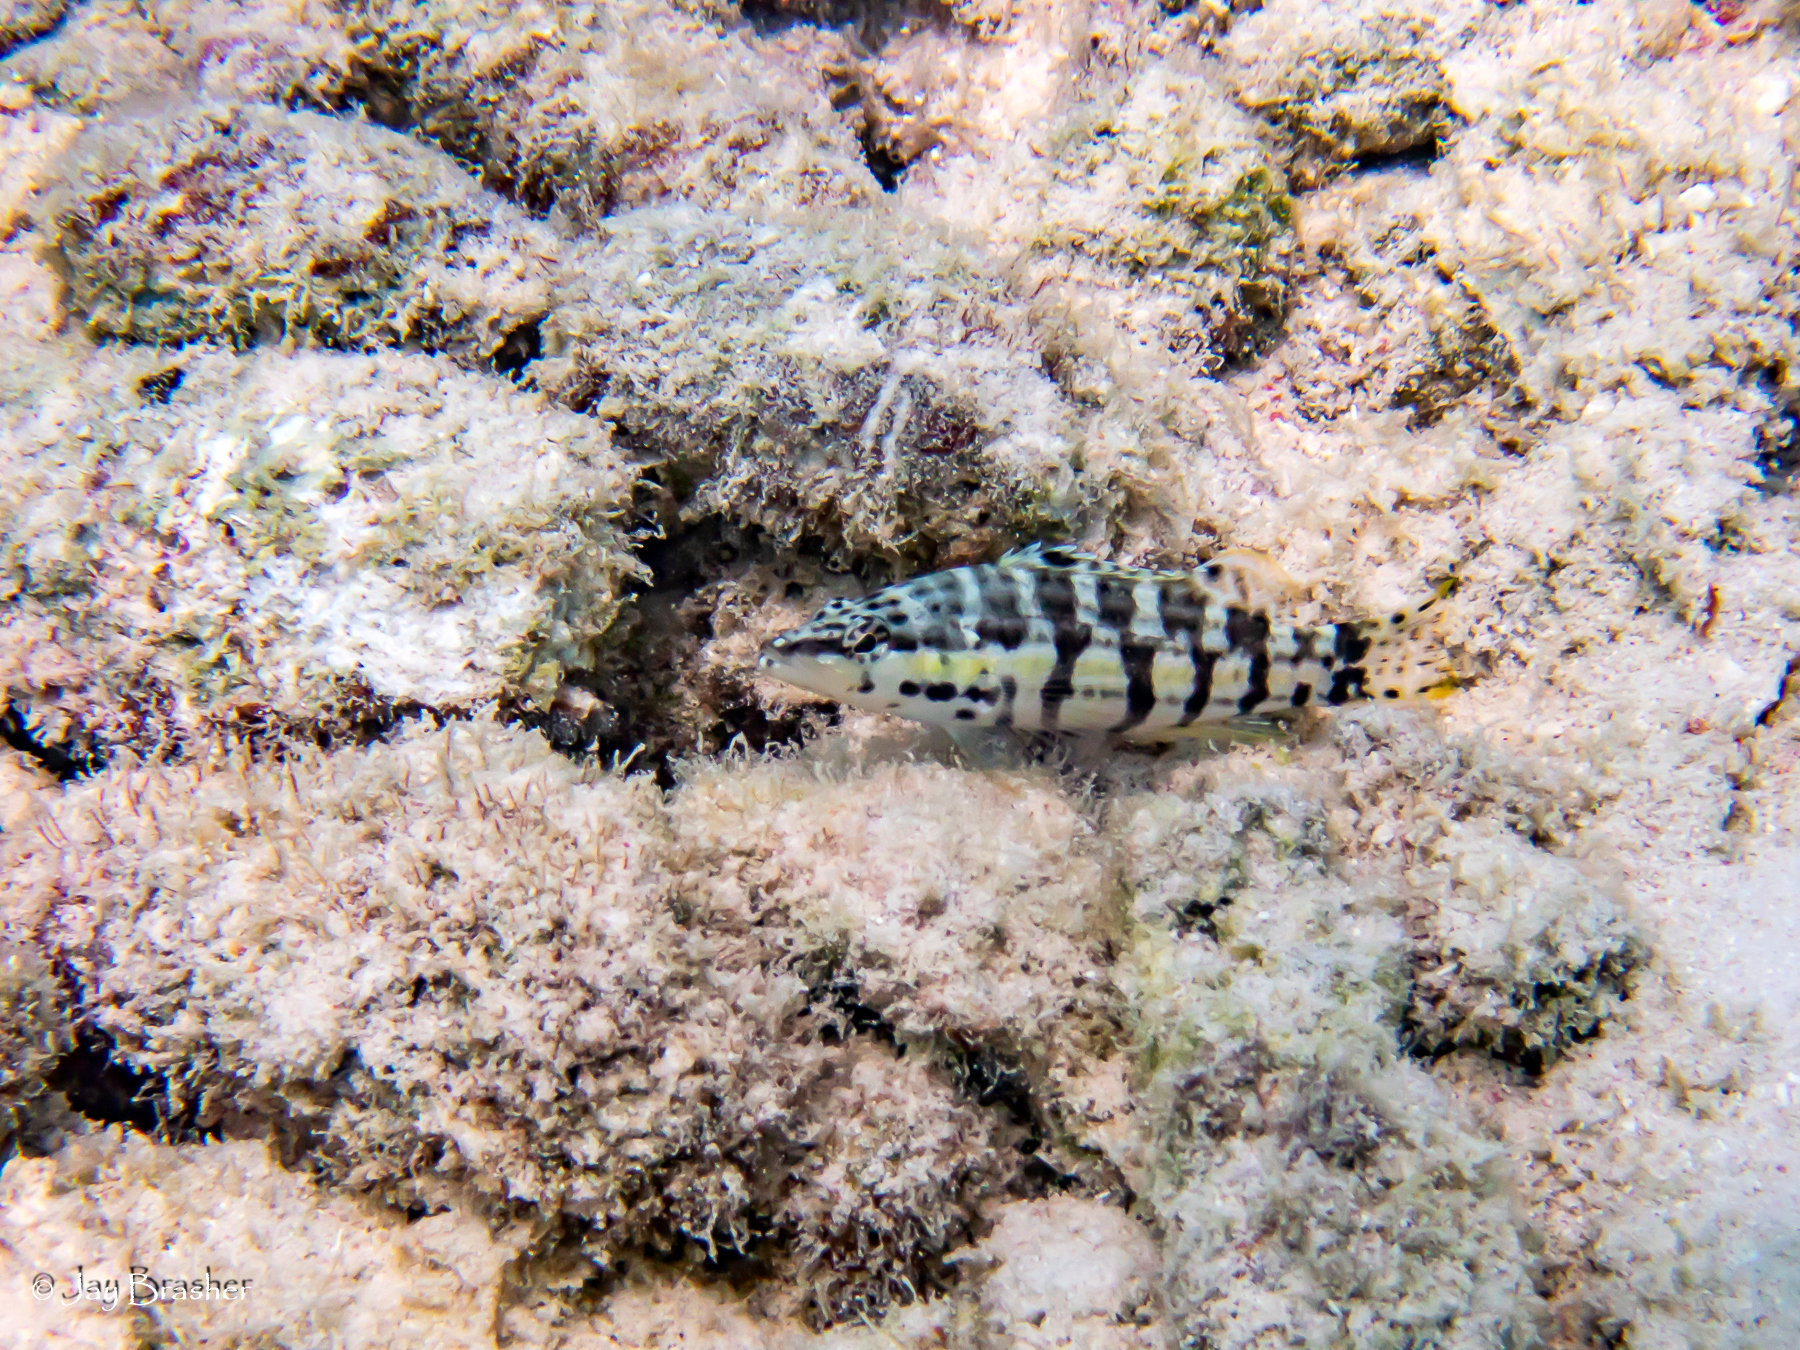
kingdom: Animalia
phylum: Chordata
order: Perciformes
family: Serranidae
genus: Serranus
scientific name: Serranus tigrinus
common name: Harlequin bass
